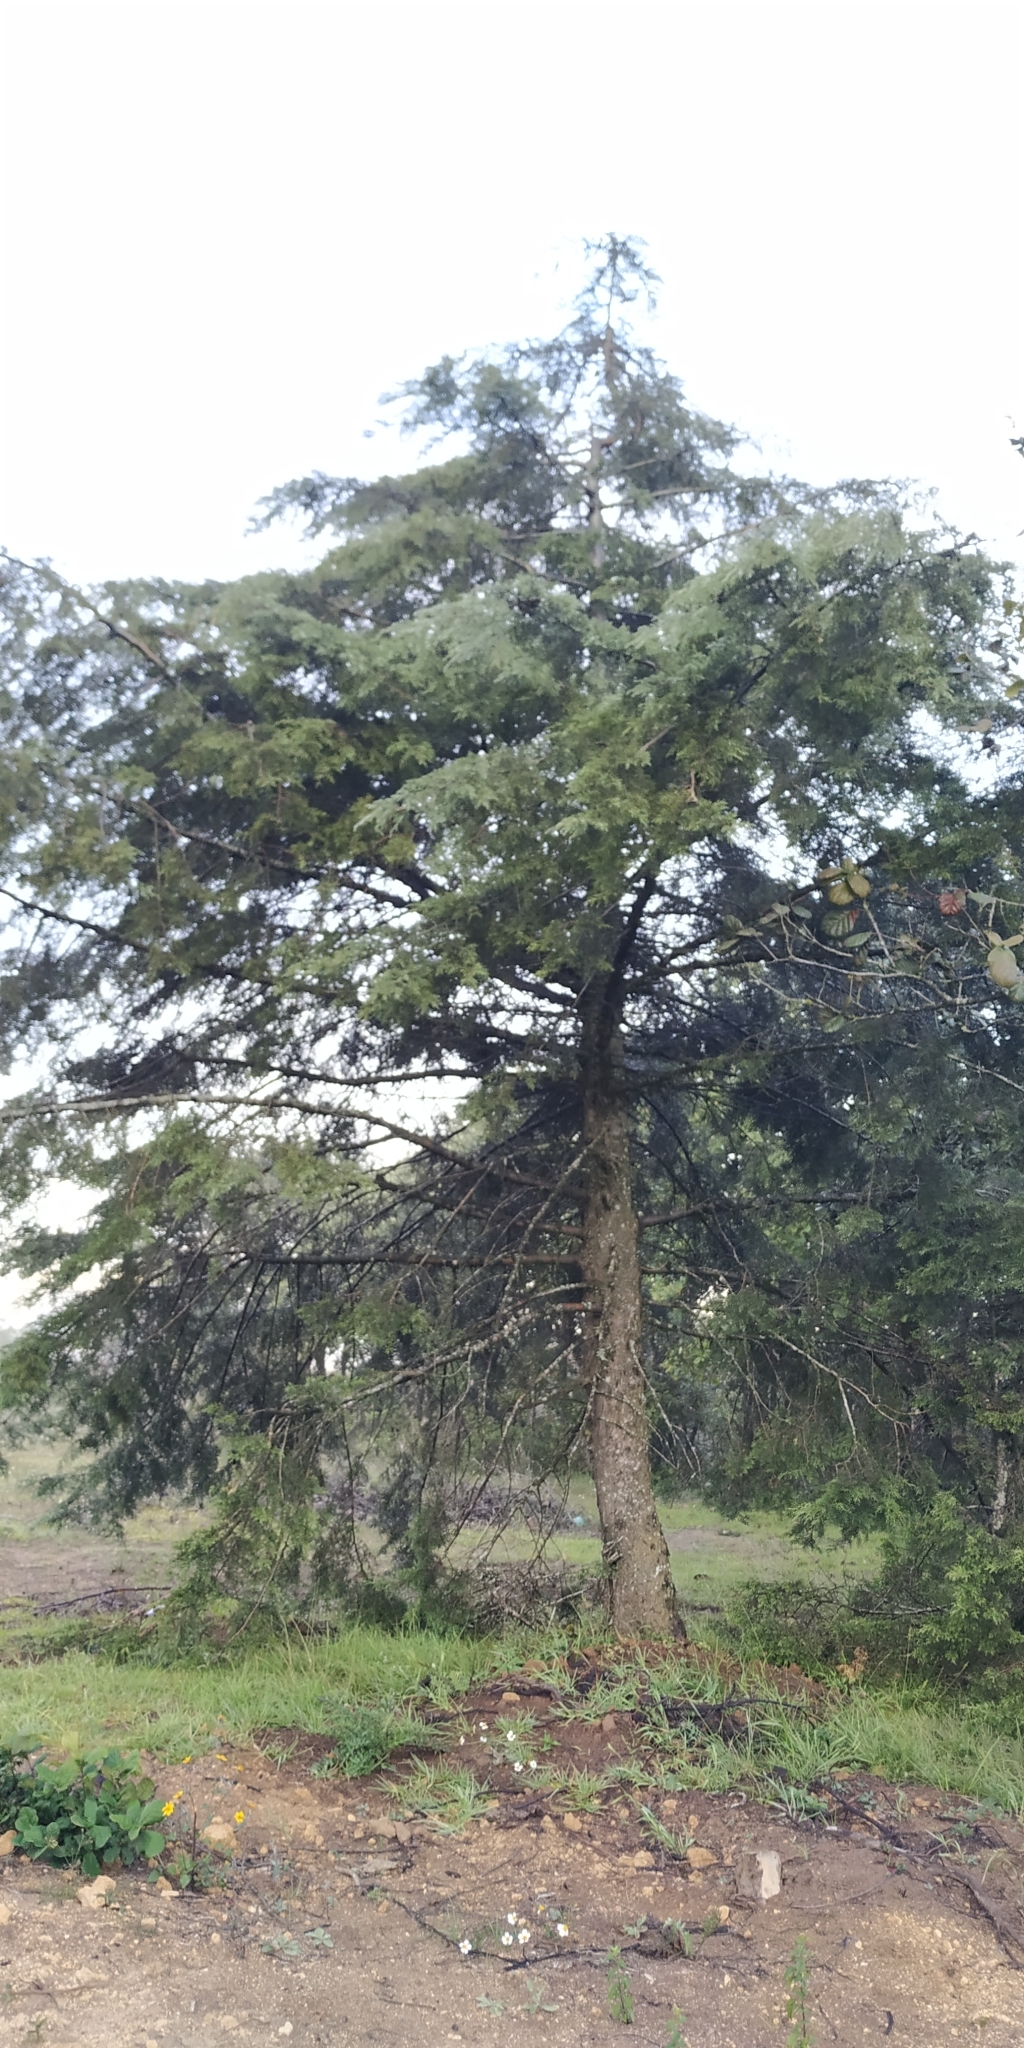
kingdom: Plantae
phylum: Tracheophyta
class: Pinopsida
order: Pinales
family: Cupressaceae
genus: Cupressus
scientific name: Cupressus lusitanica
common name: Mexican cypress
